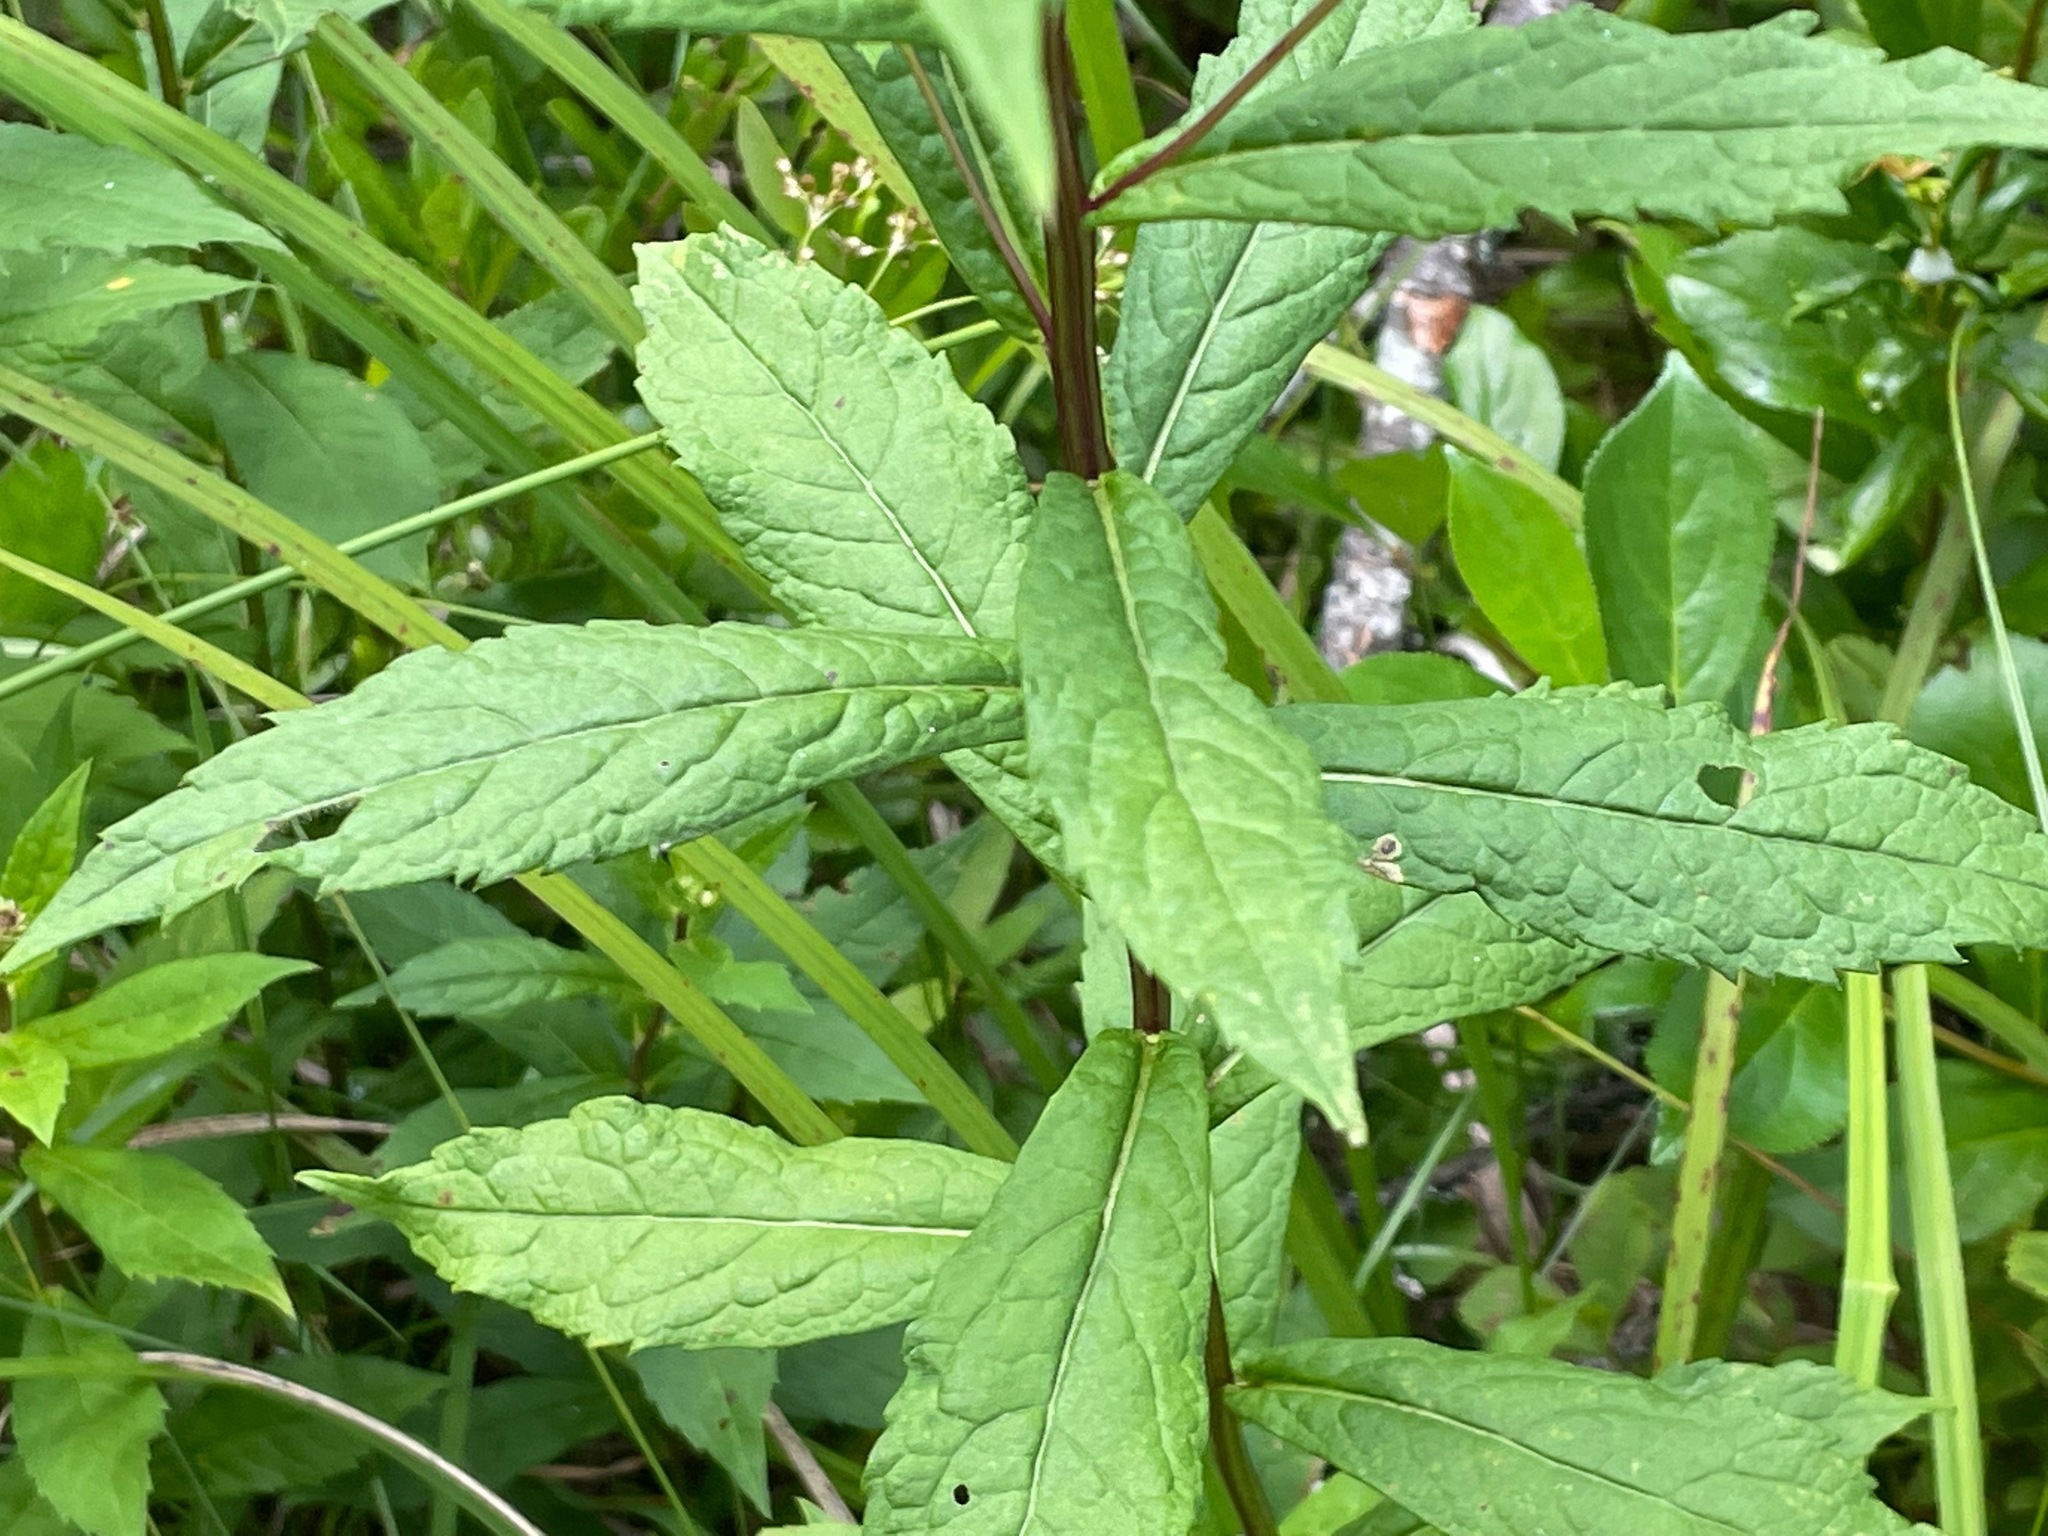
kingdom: Plantae
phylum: Tracheophyta
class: Magnoliopsida
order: Asterales
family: Asteraceae
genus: Eurybia
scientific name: Eurybia radula
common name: Low rough aster
